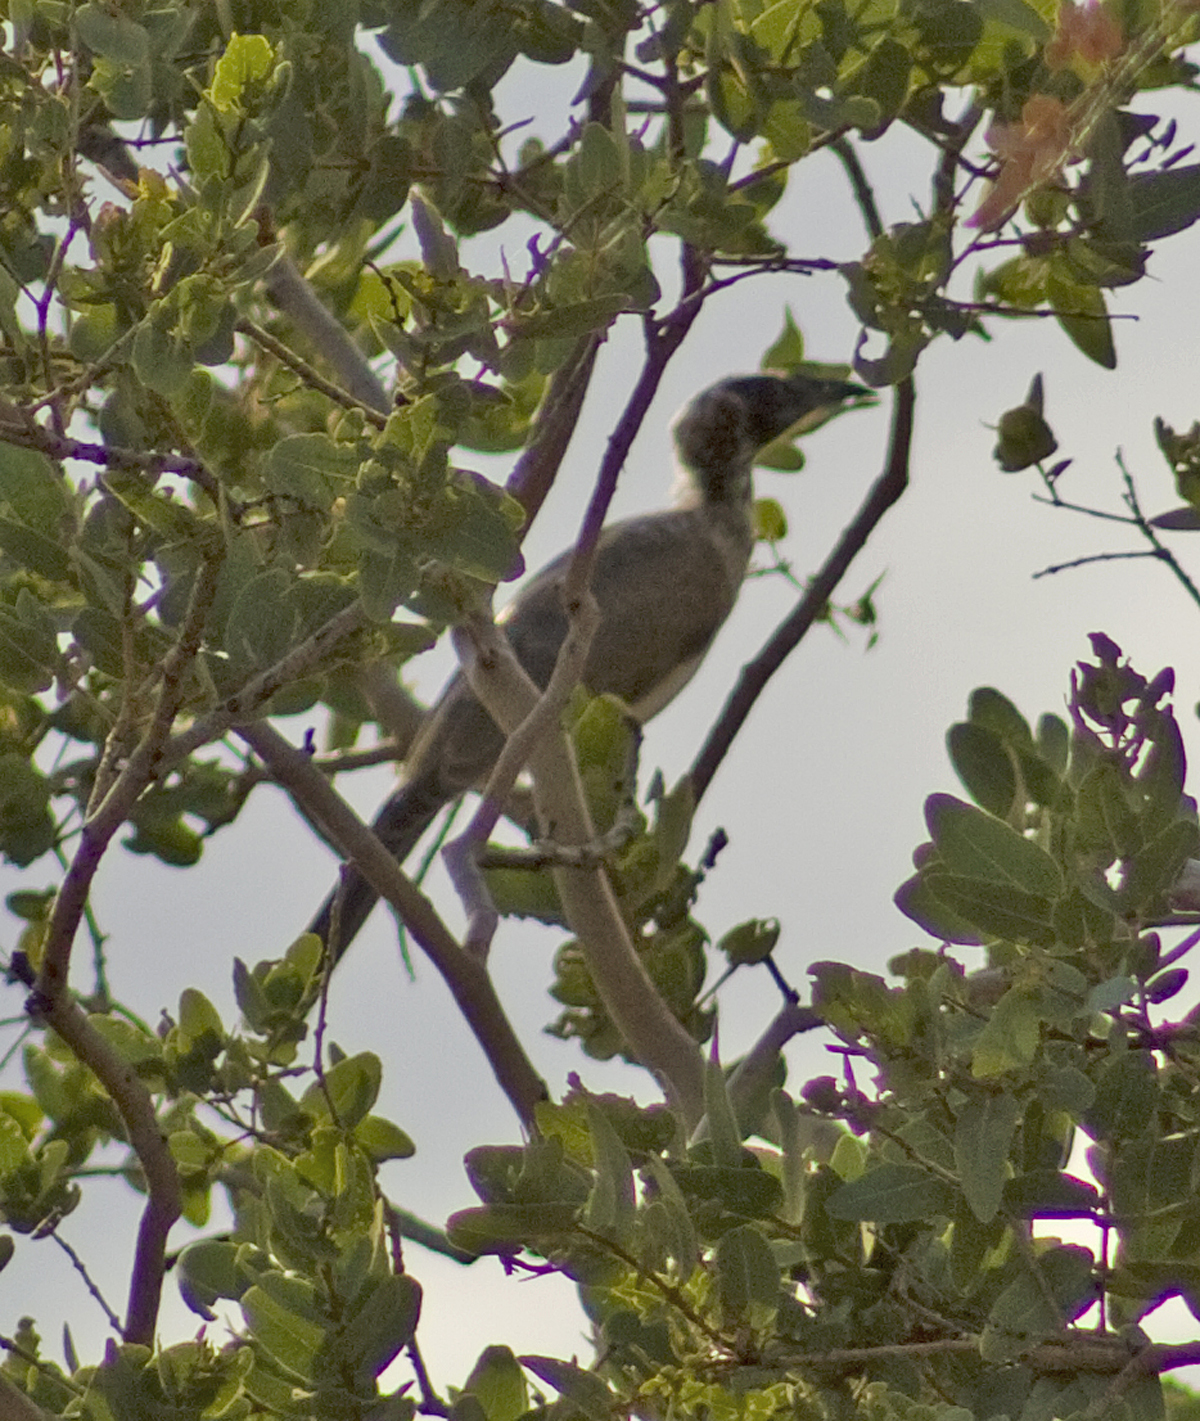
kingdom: Animalia
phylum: Chordata
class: Aves
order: Passeriformes
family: Meliphagidae
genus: Philemon
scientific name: Philemon argenticeps
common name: Silver-crowned friarbird
